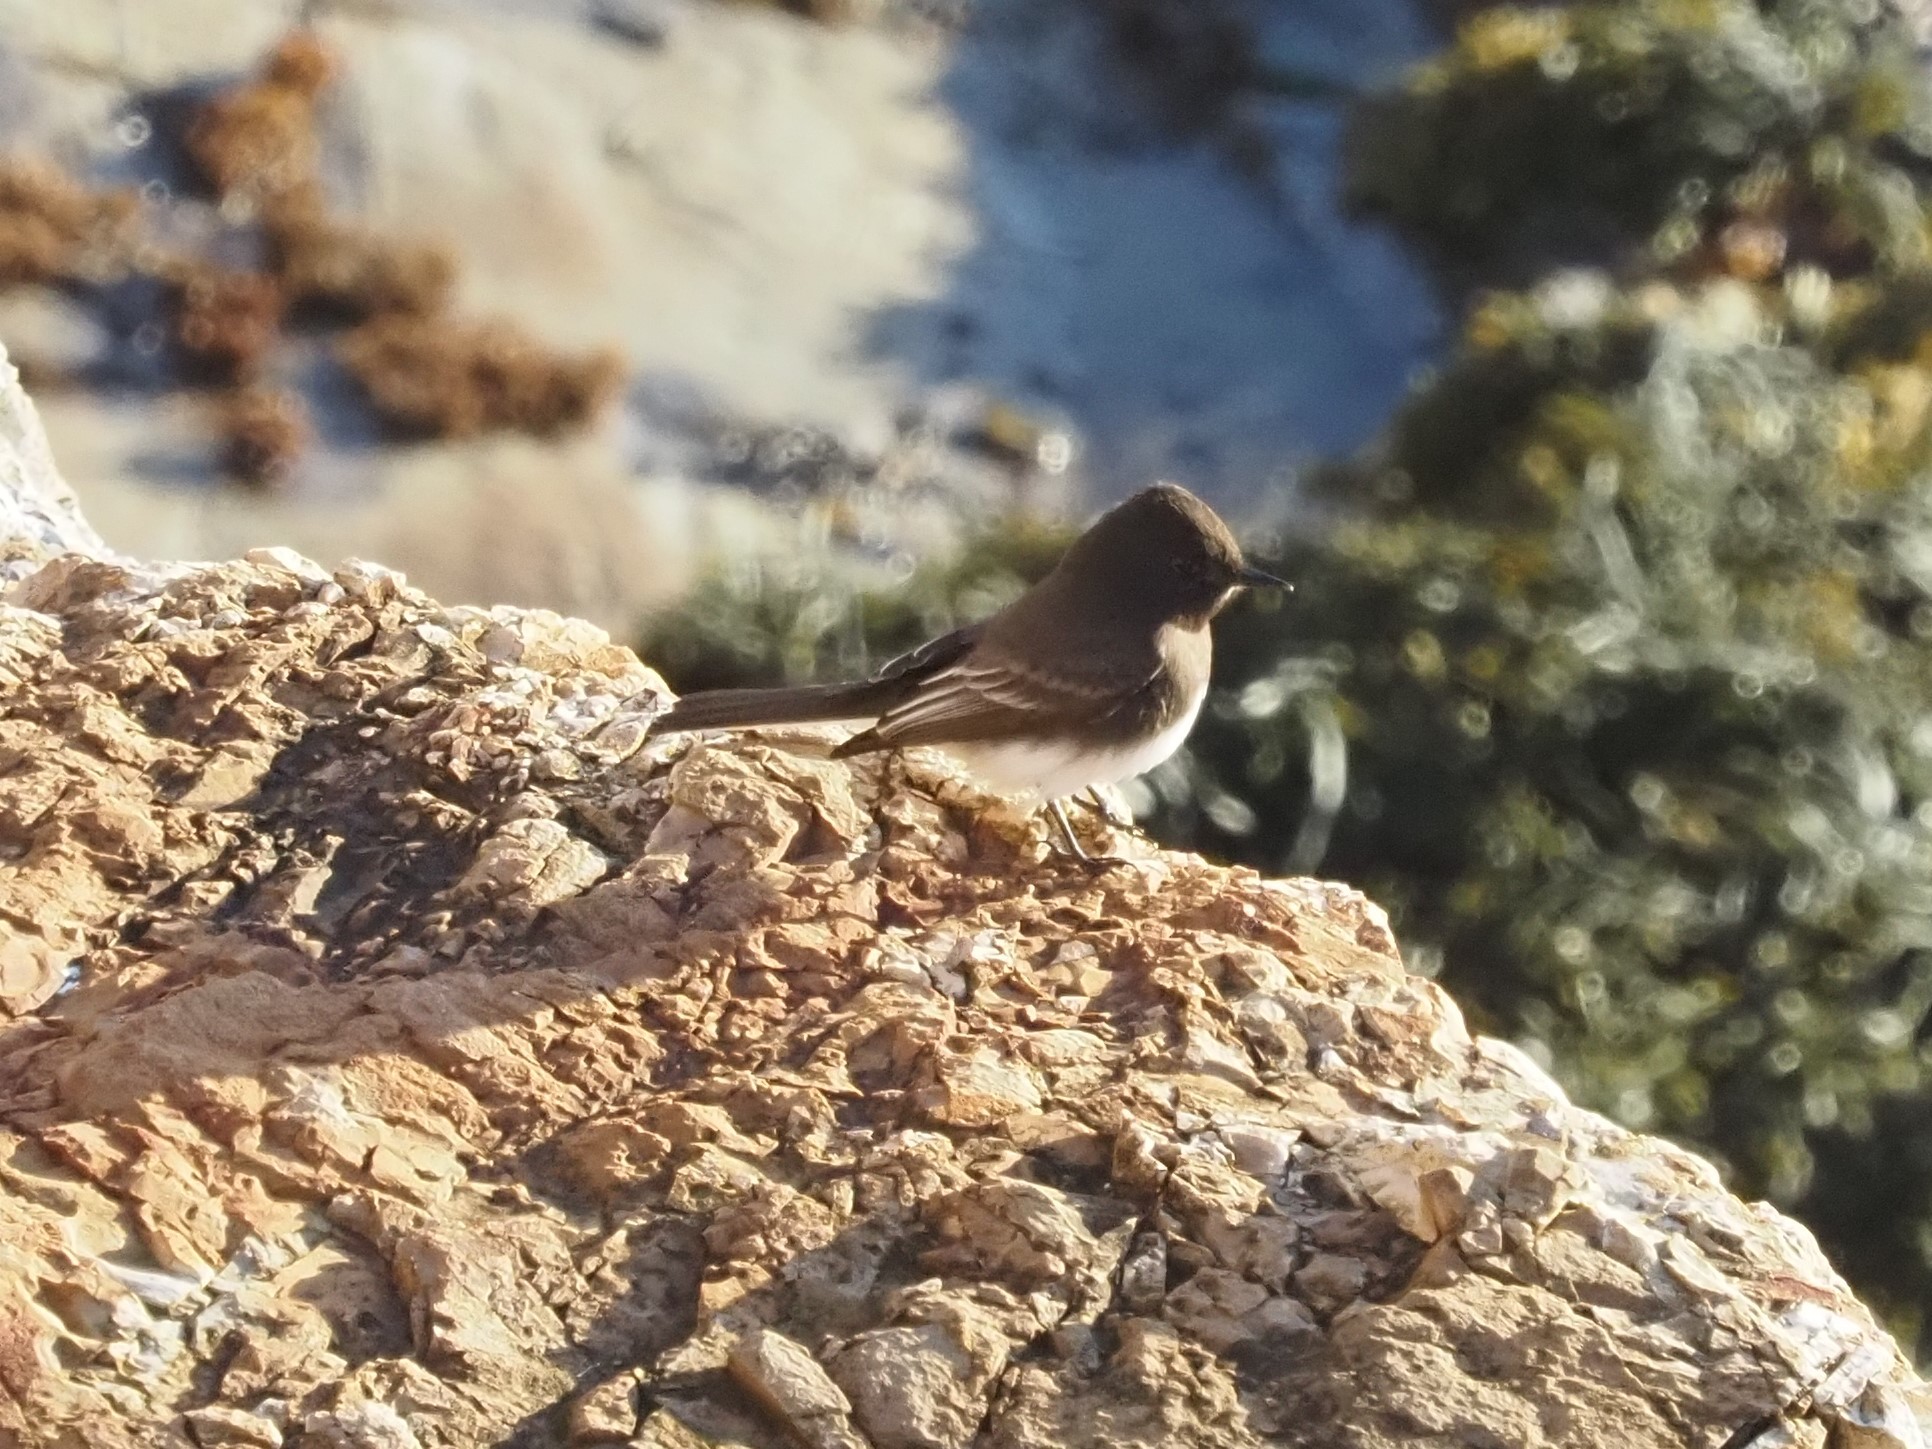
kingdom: Animalia
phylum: Chordata
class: Aves
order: Passeriformes
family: Tyrannidae
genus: Sayornis
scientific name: Sayornis nigricans
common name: Black phoebe
